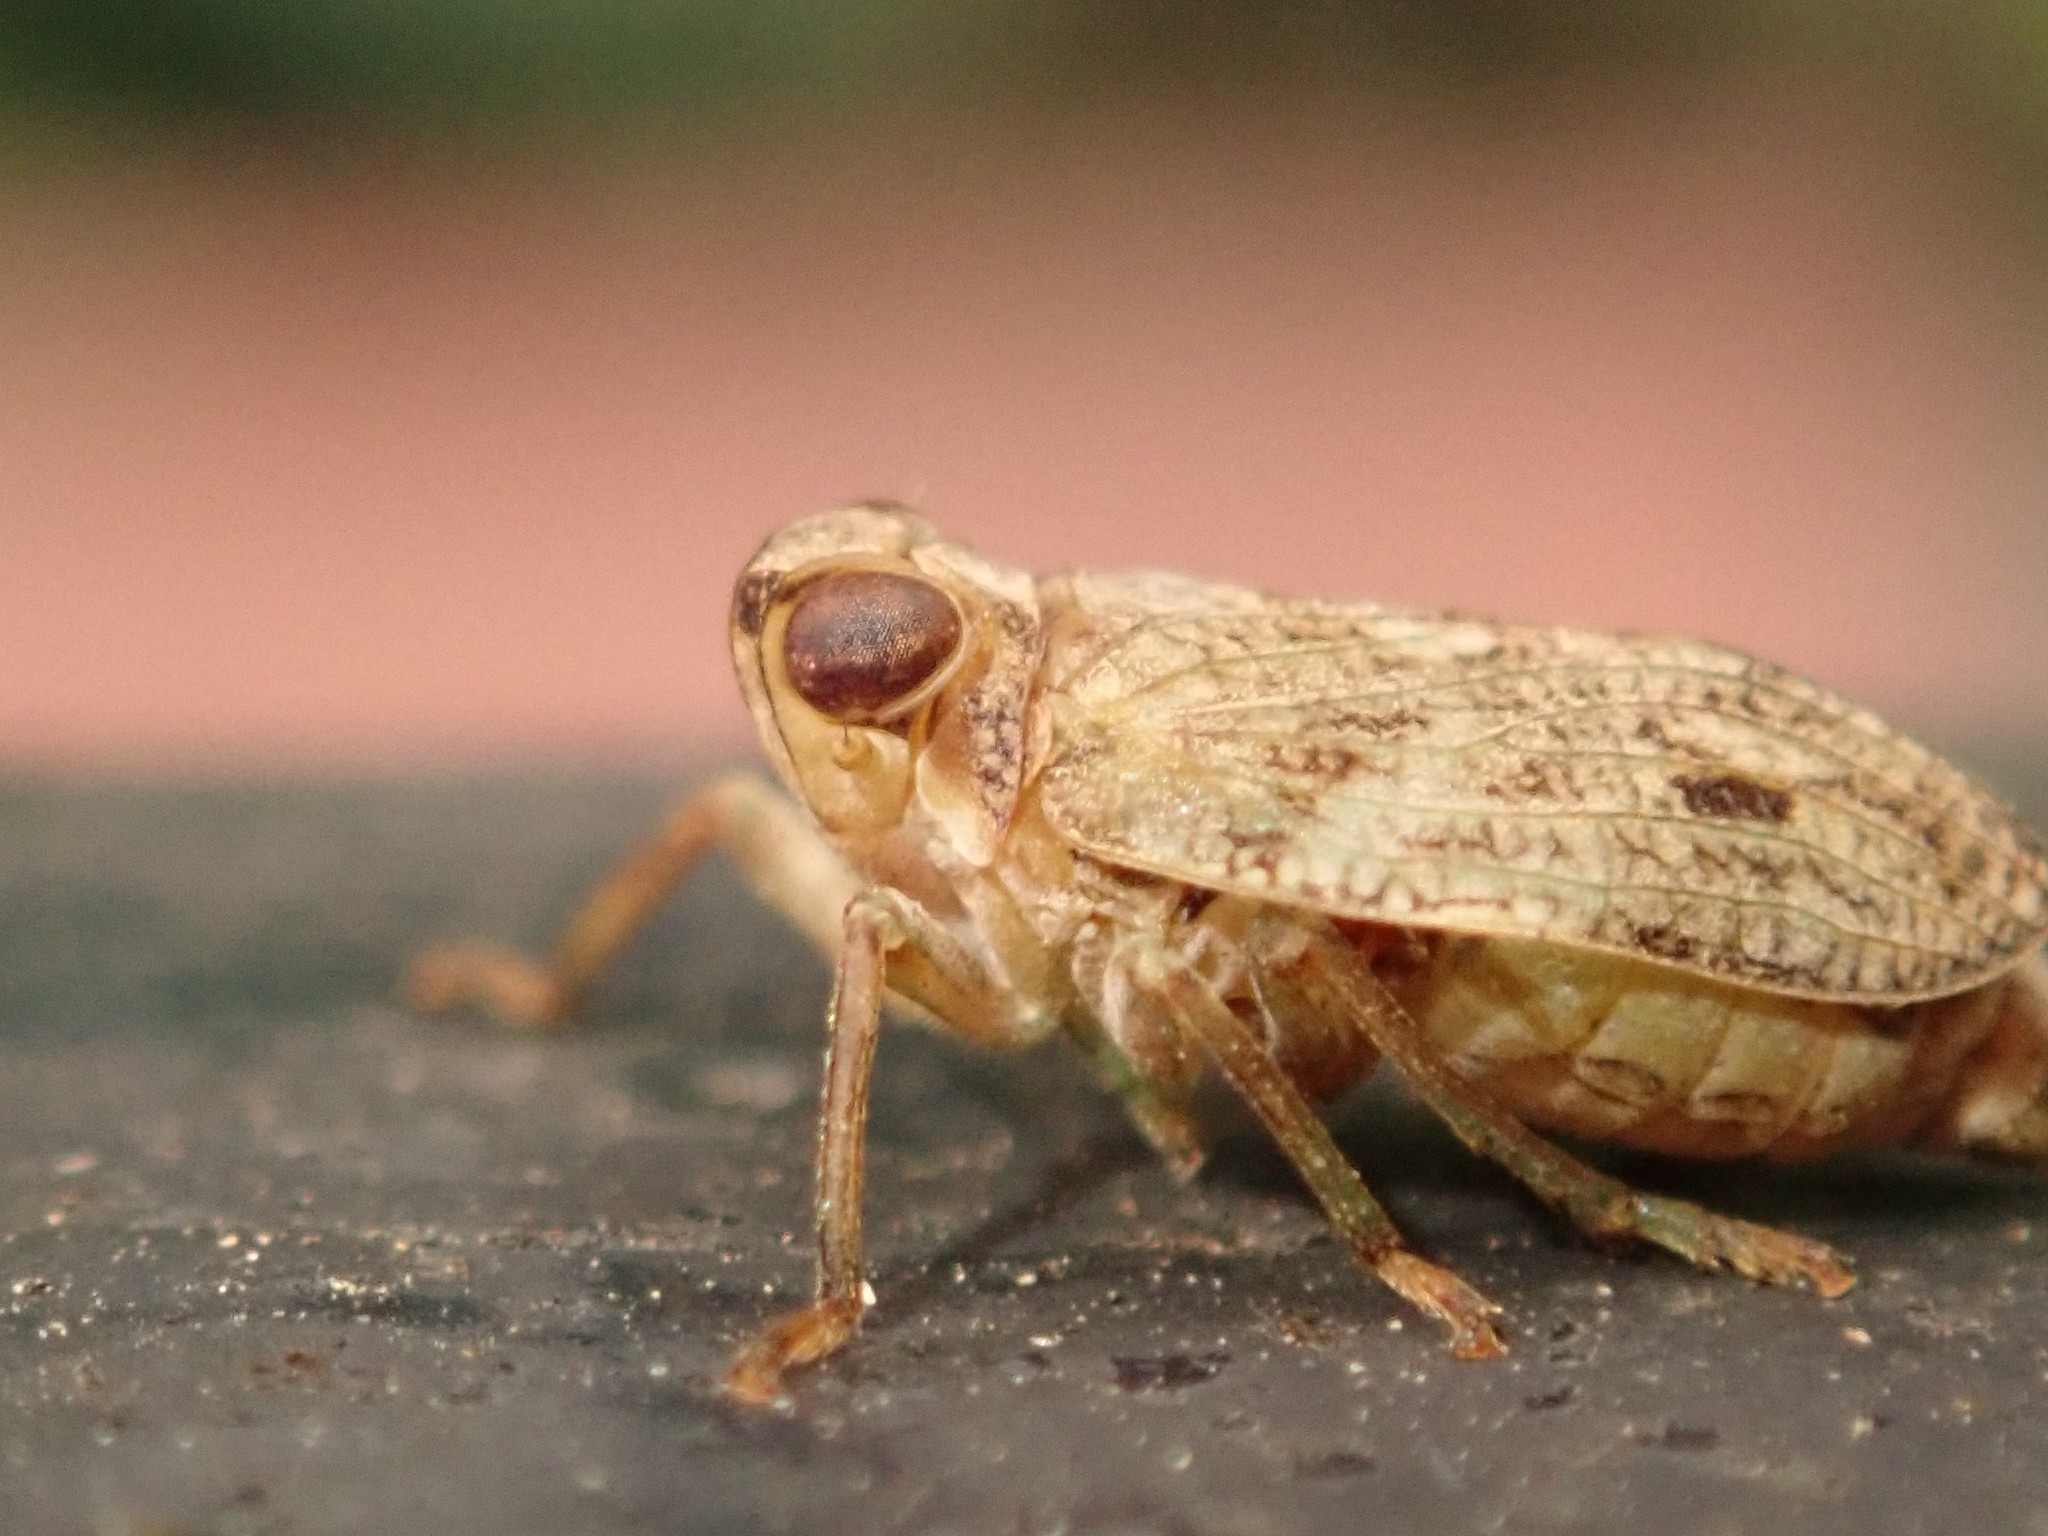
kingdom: Animalia
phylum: Arthropoda
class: Insecta
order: Hemiptera
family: Issidae
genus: Issus
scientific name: Issus coleoptratus
